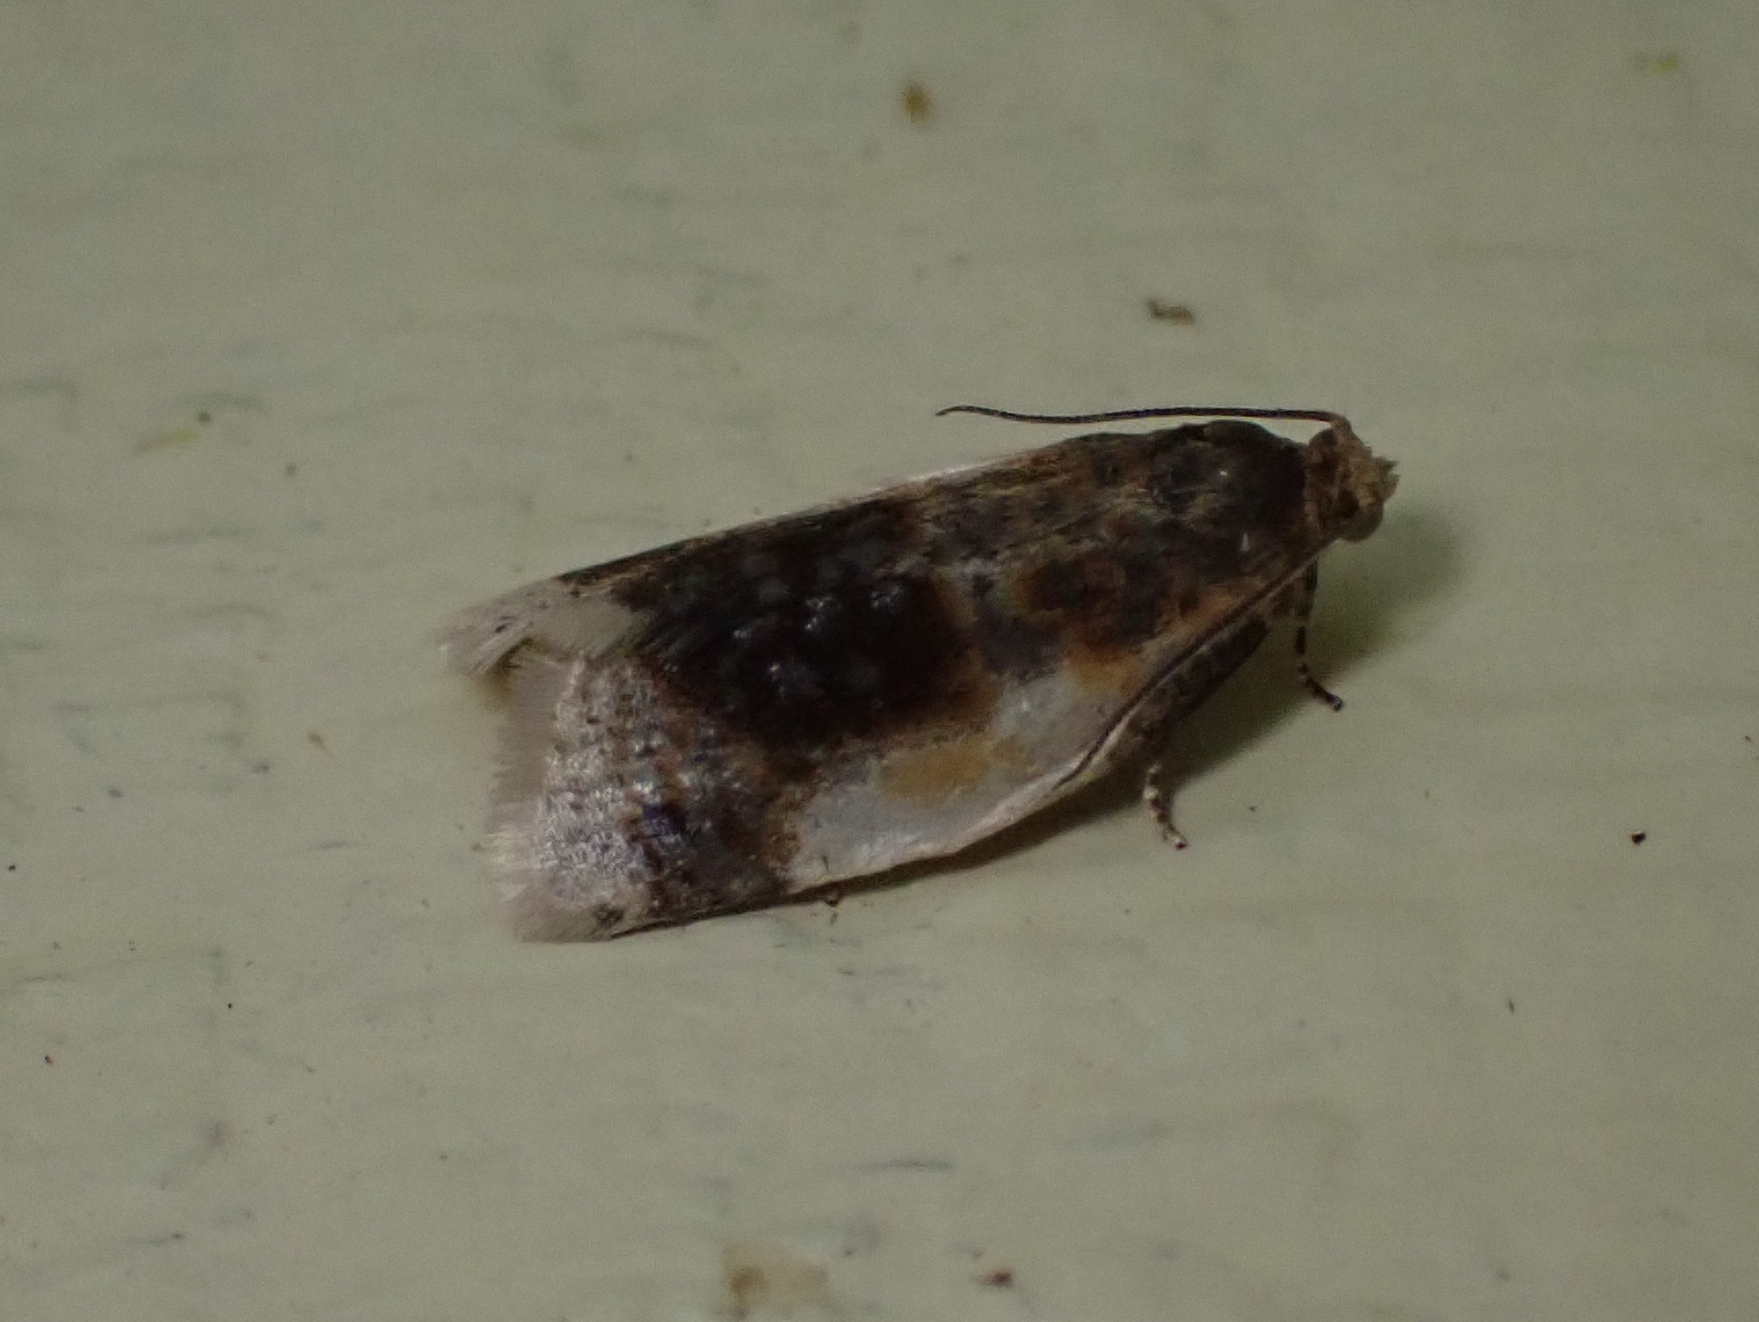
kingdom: Animalia
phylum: Arthropoda
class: Insecta
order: Lepidoptera
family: Tortricidae
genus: Clepsis
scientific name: Clepsis melaleucanus
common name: American apple tortrix
